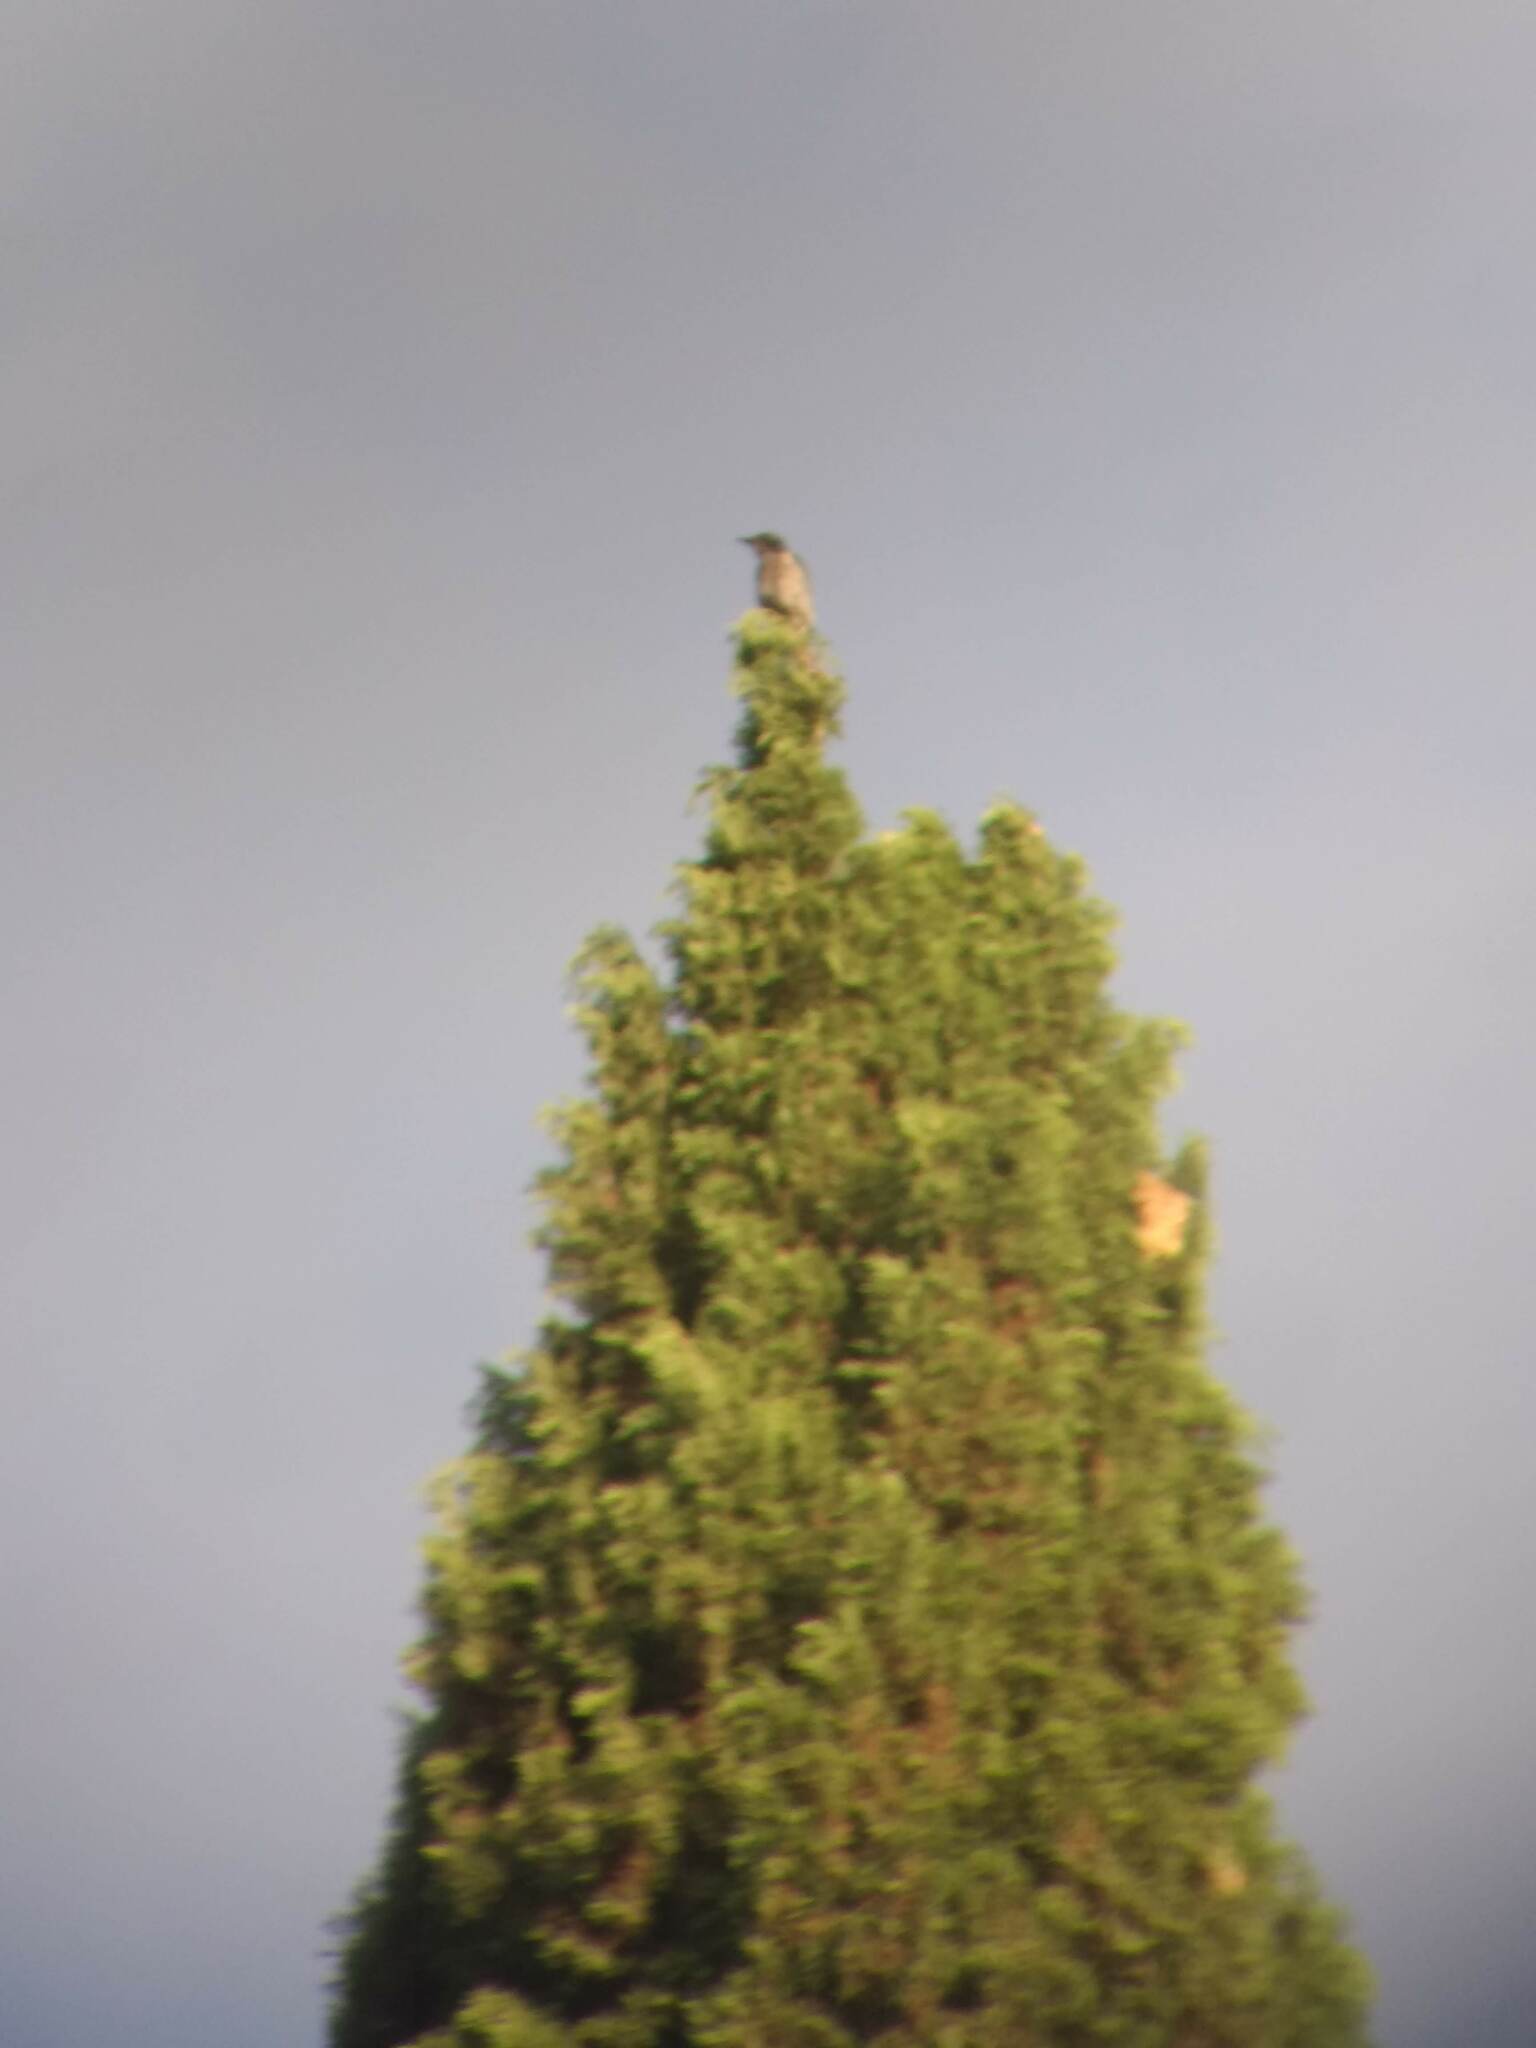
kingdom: Animalia
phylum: Chordata
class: Aves
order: Passeriformes
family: Corvidae
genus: Aphelocoma
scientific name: Aphelocoma californica
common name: California scrub-jay
